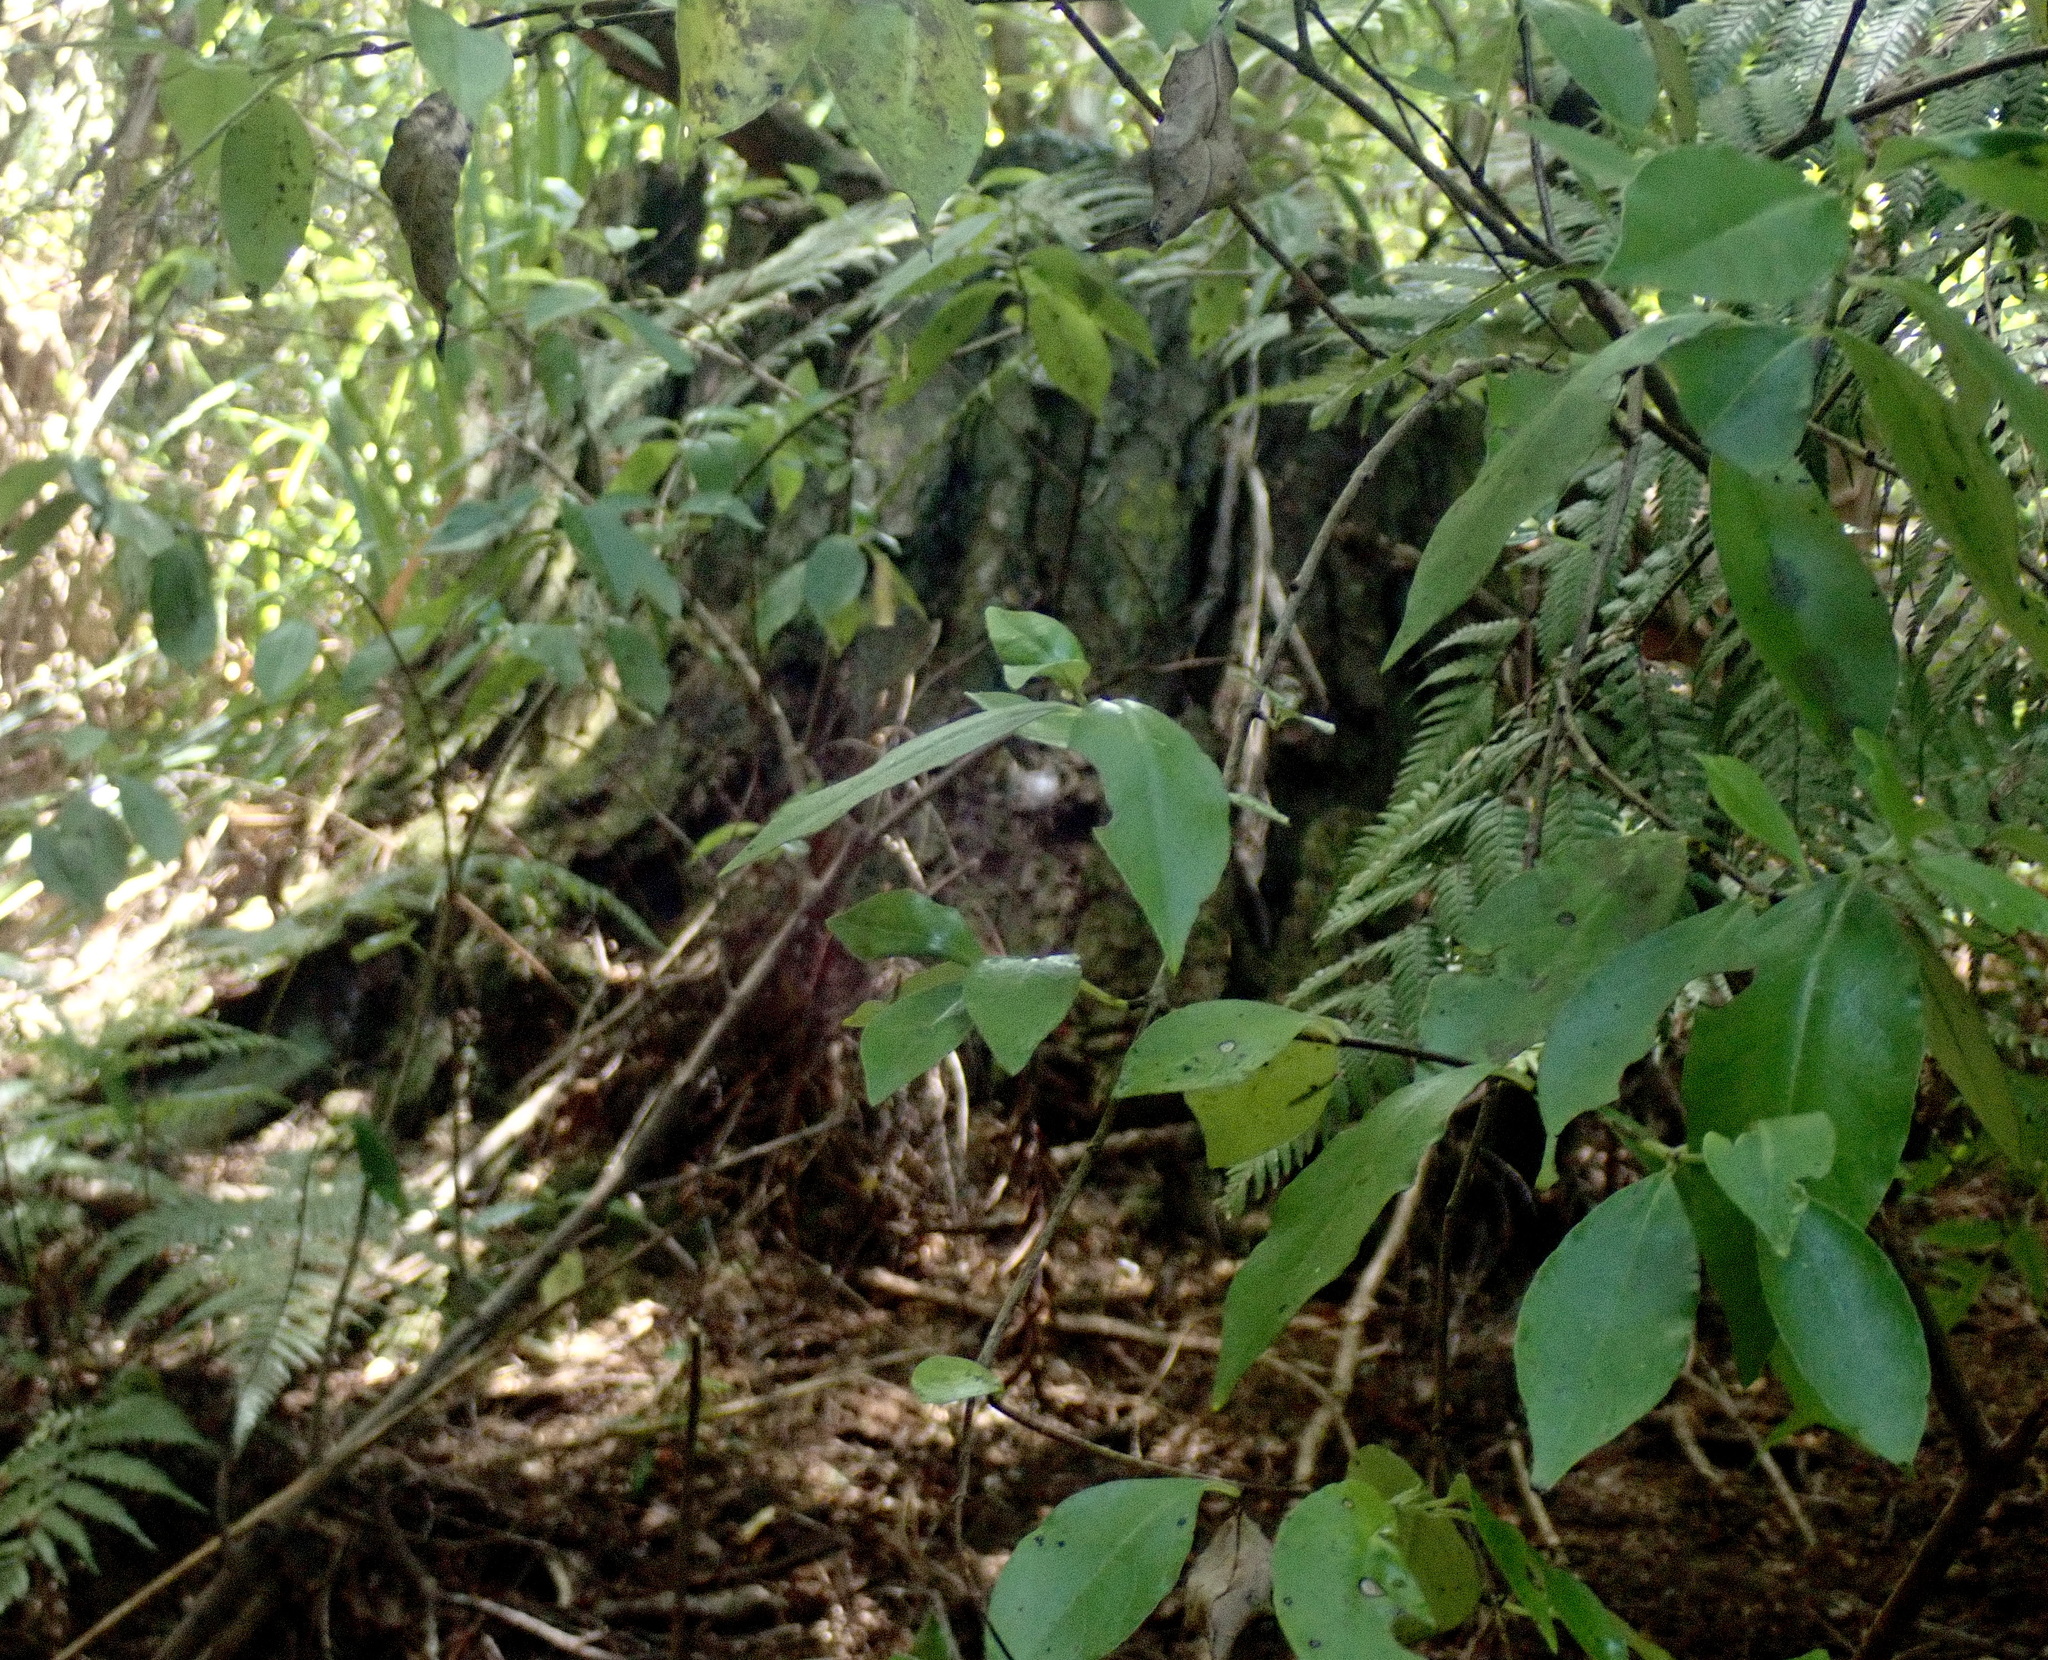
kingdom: Plantae
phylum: Tracheophyta
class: Magnoliopsida
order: Gentianales
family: Loganiaceae
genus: Geniostoma
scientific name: Geniostoma ligustrifolium
